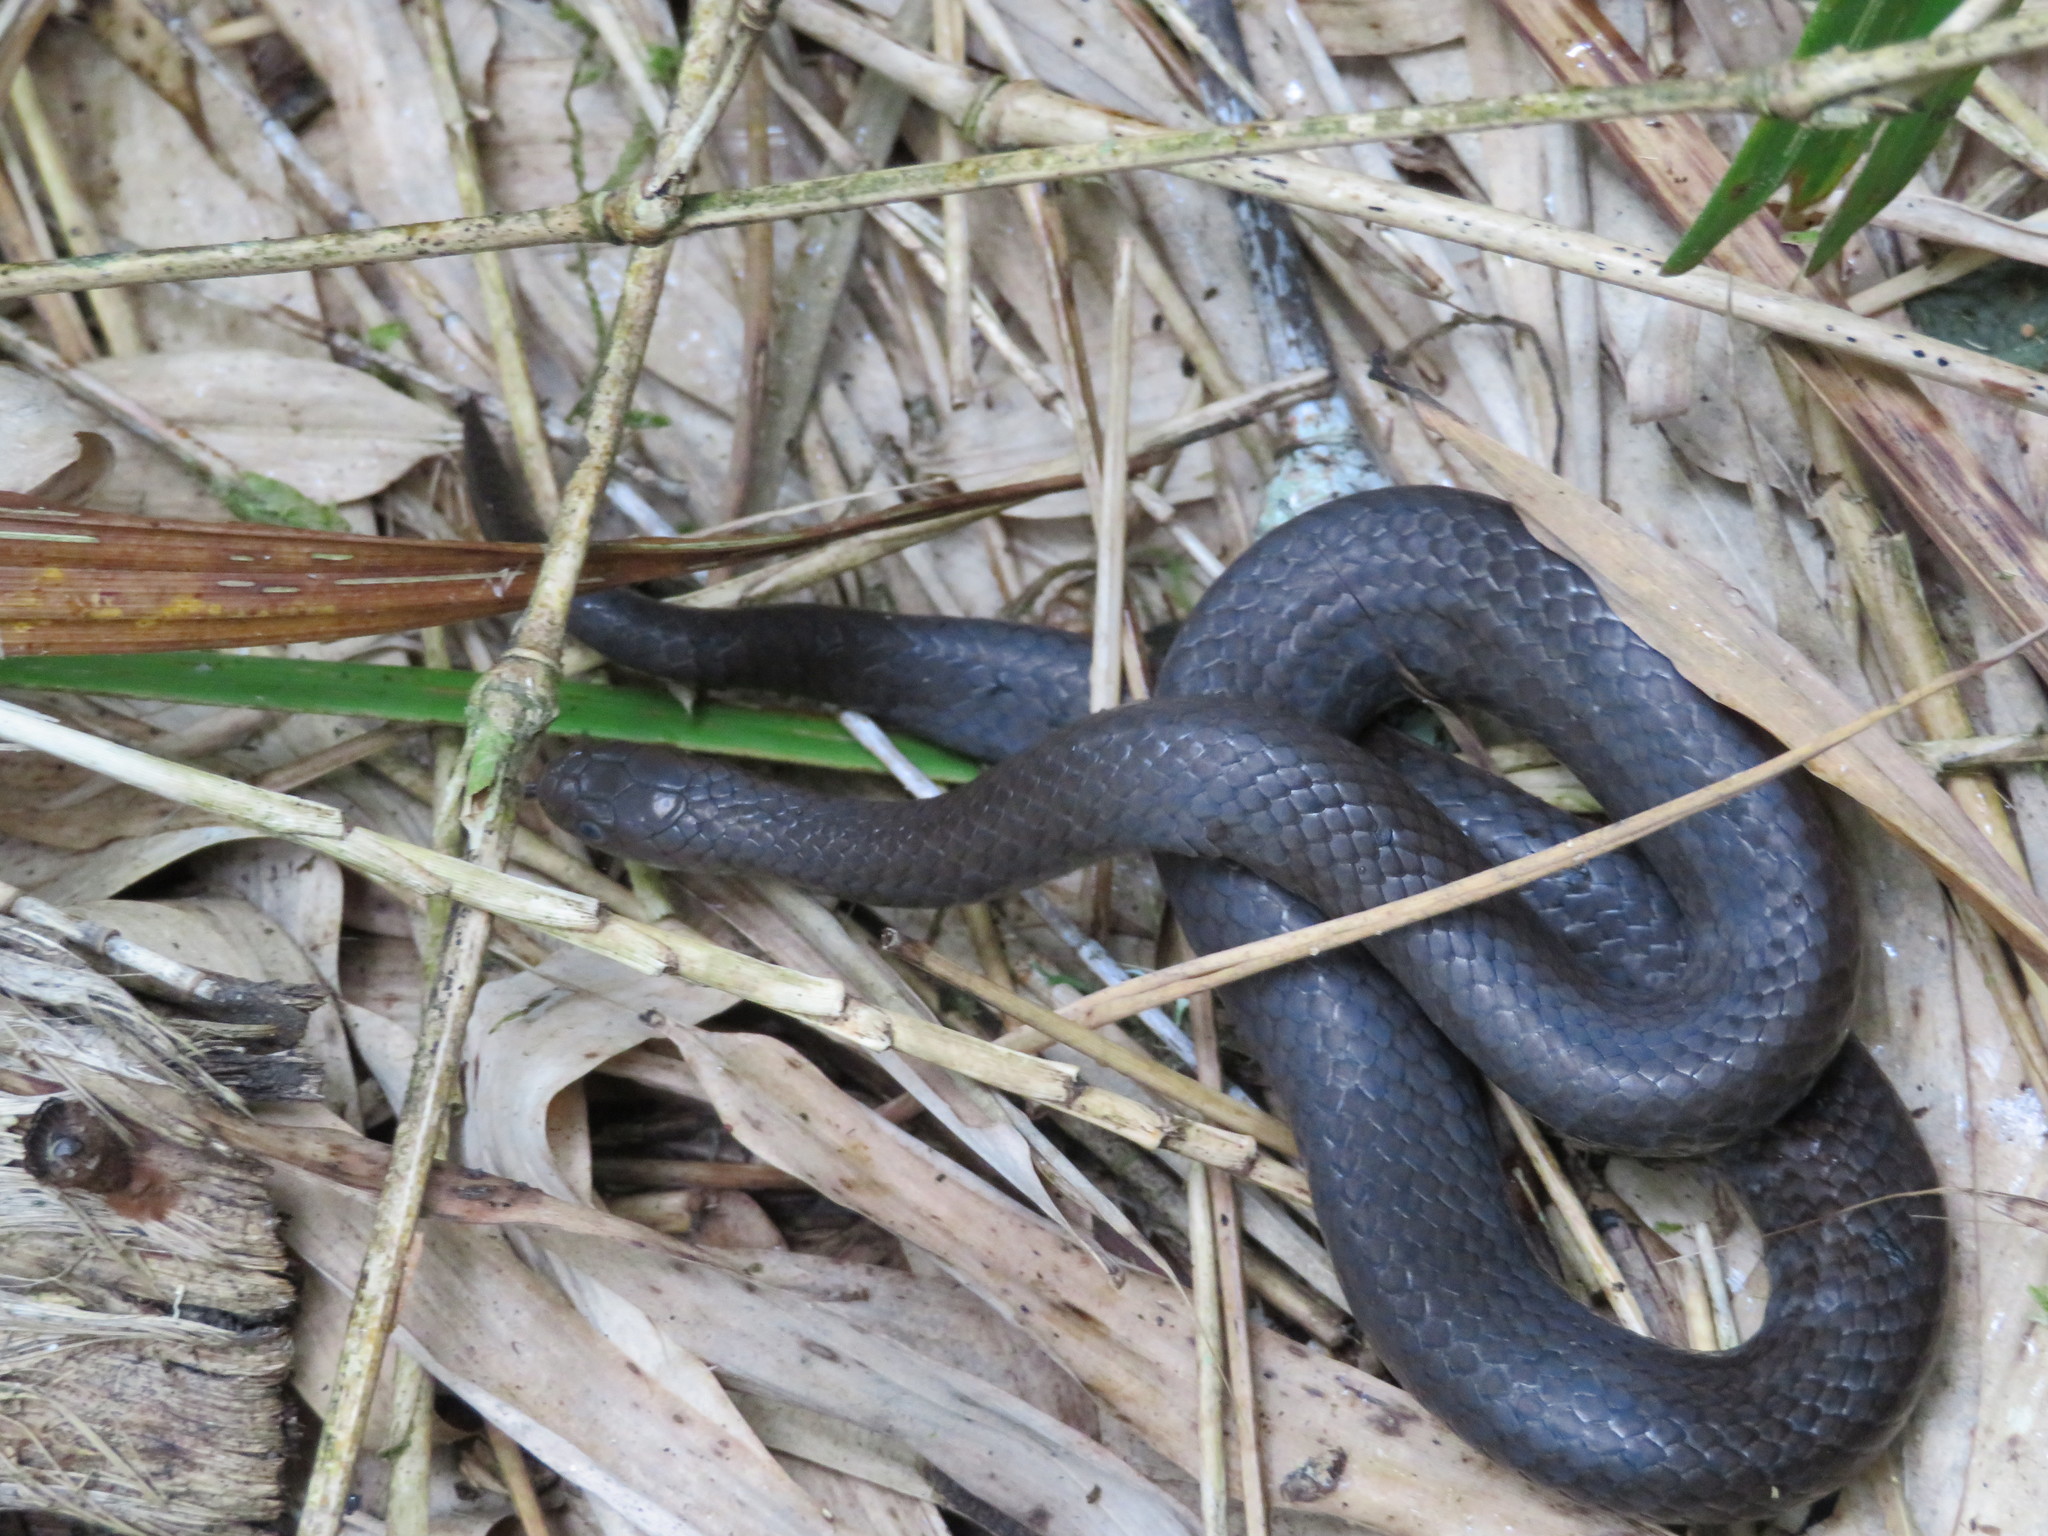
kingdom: Animalia
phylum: Chordata
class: Squamata
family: Pseudoxyrhophiidae
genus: Duberria
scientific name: Duberria lutrix
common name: Common slug eater
